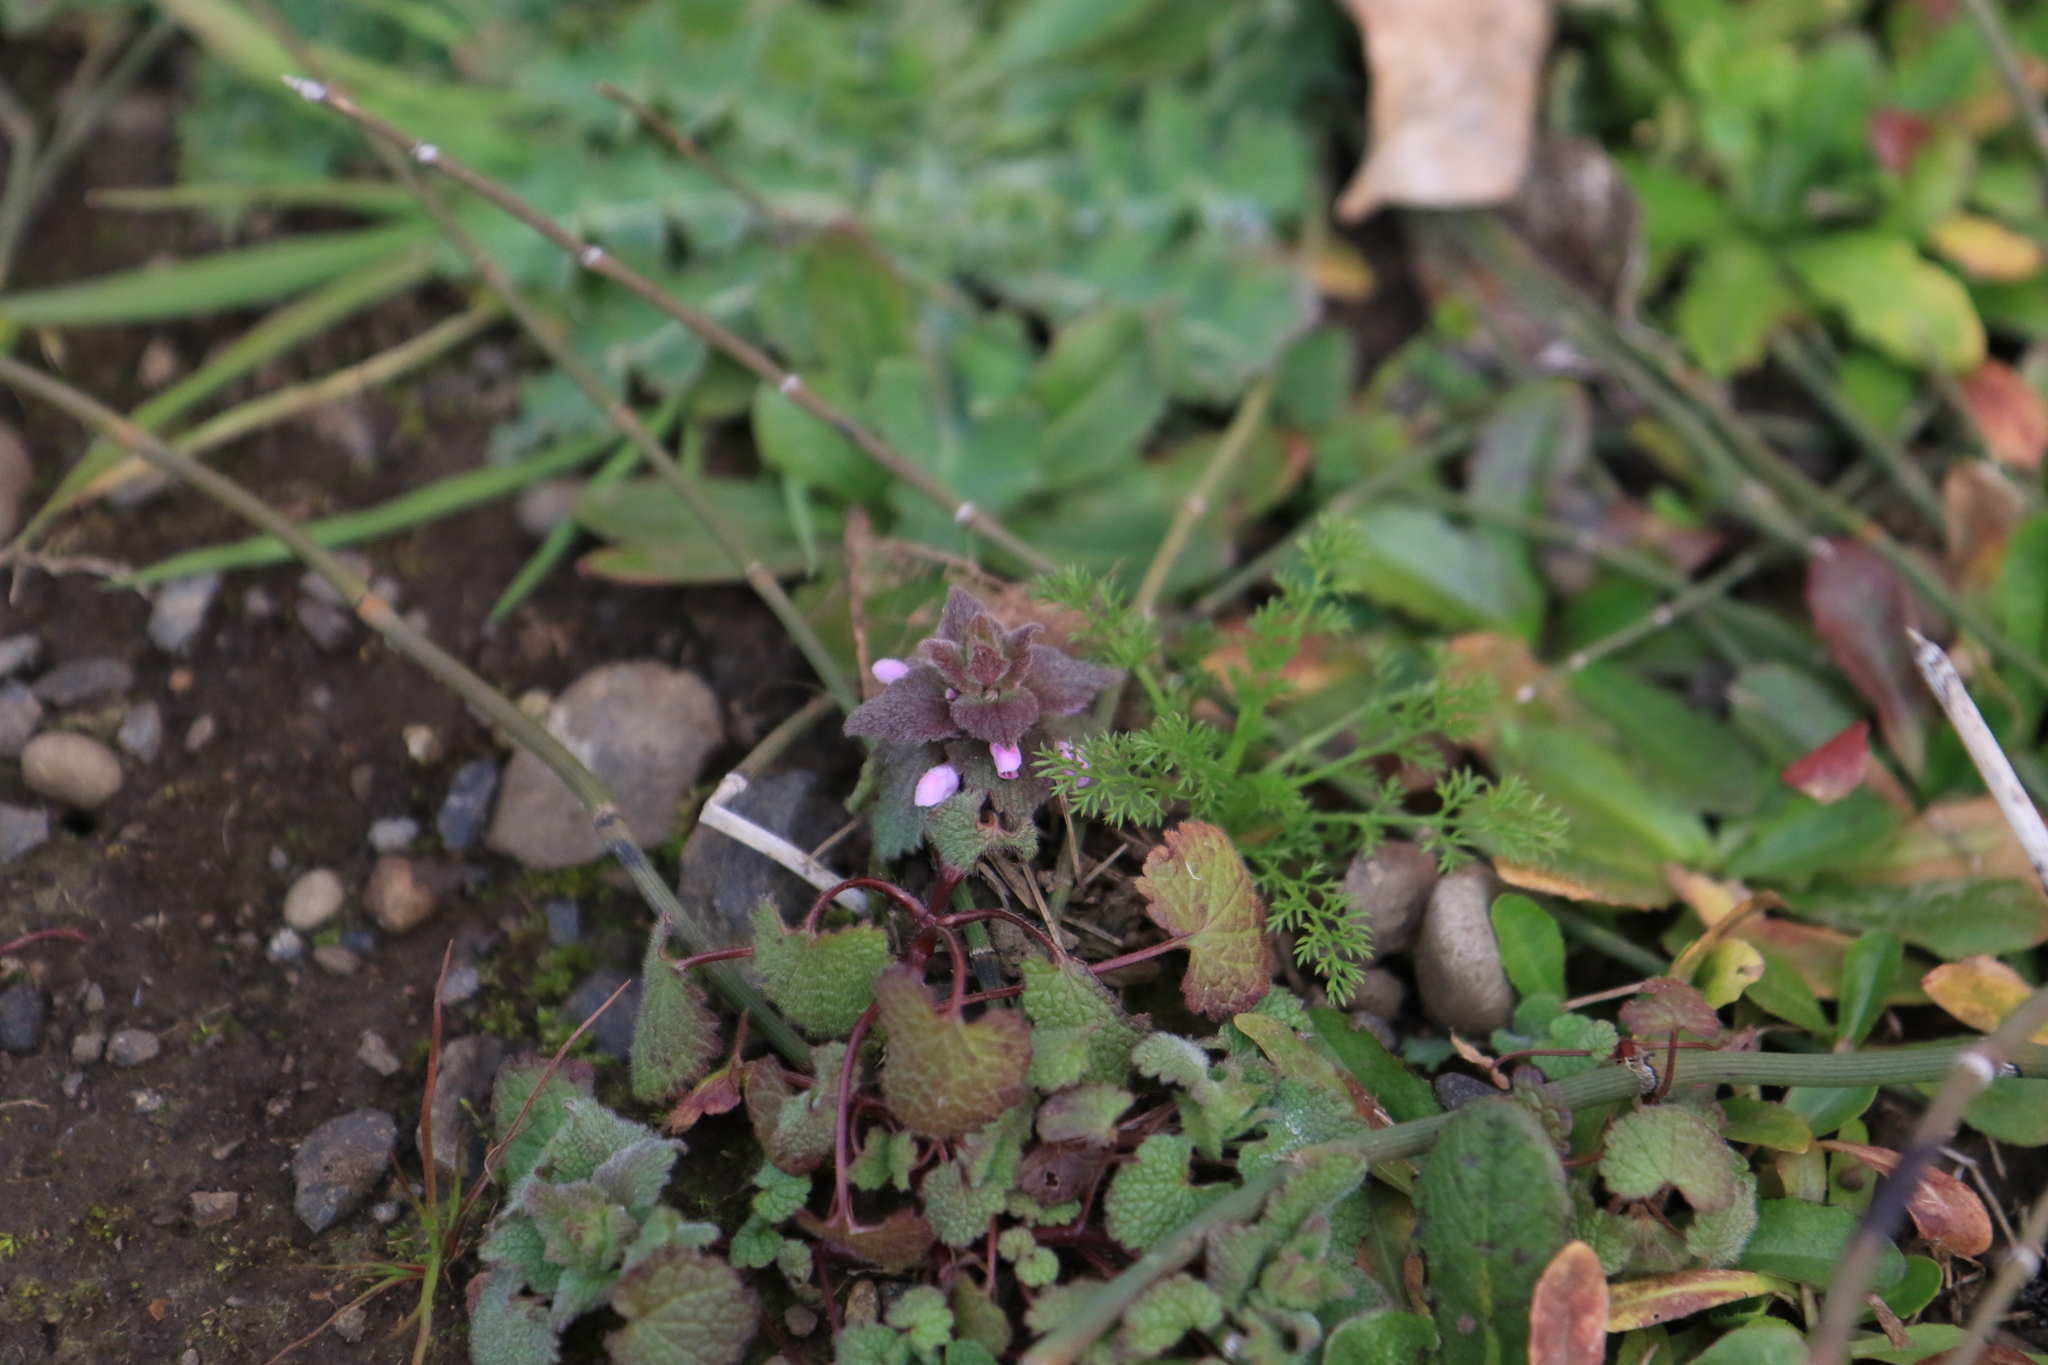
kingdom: Plantae
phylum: Tracheophyta
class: Magnoliopsida
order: Lamiales
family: Lamiaceae
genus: Lamium
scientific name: Lamium purpureum
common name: Red dead-nettle
